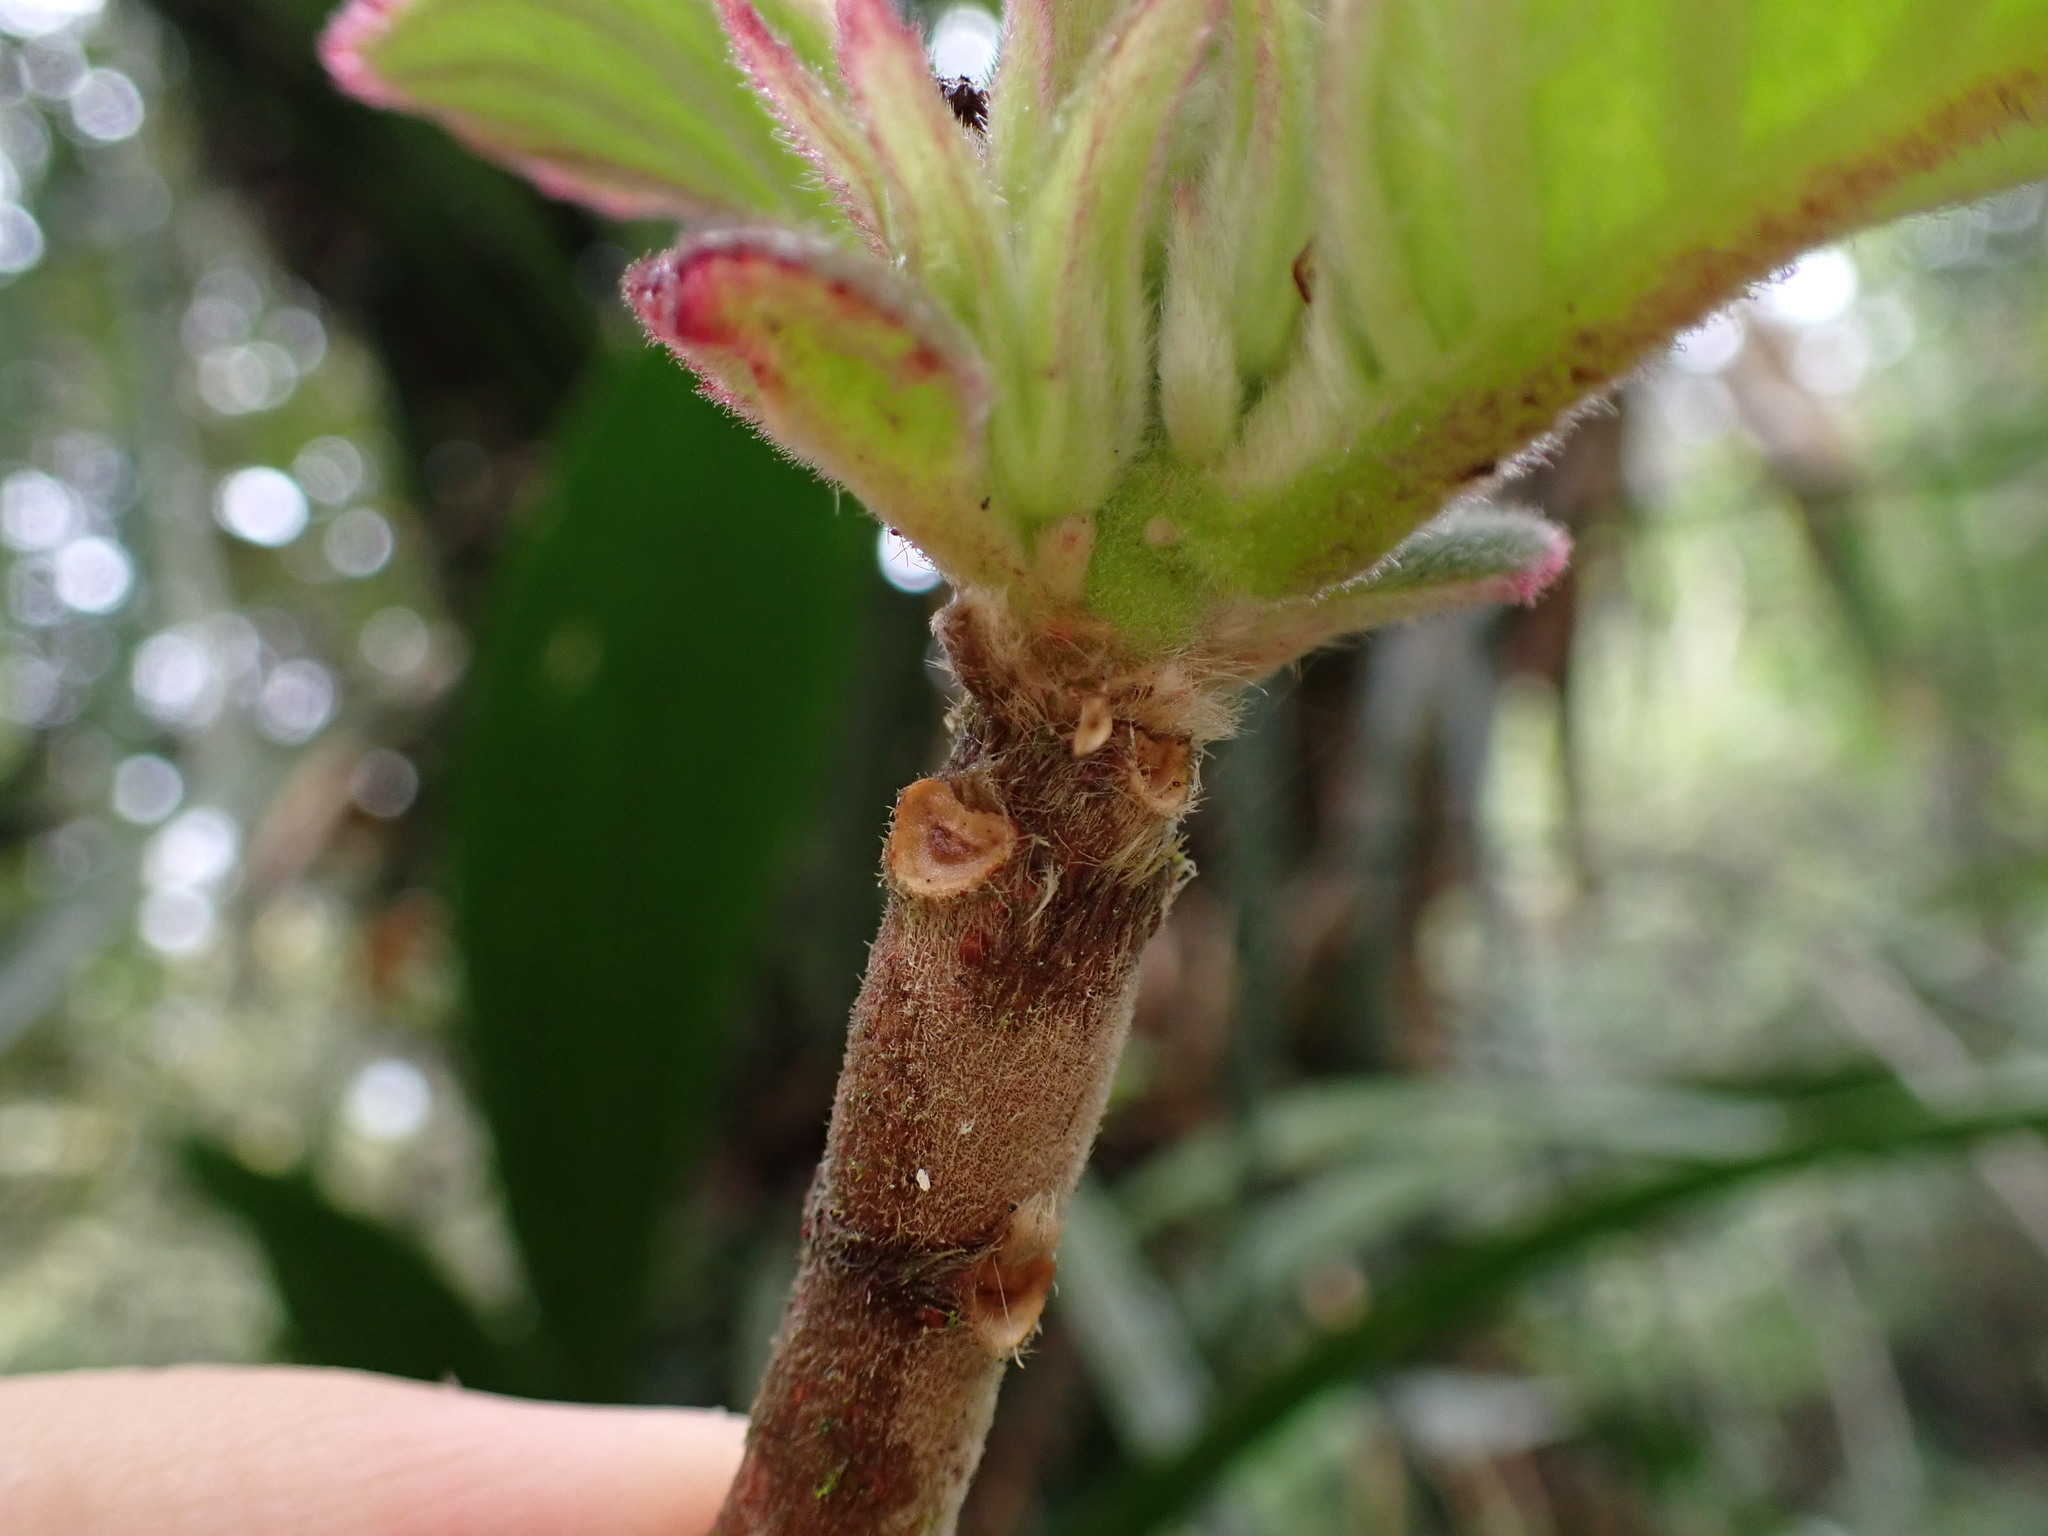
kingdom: Plantae
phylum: Tracheophyta
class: Magnoliopsida
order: Lamiales
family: Gesneriaceae
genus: Columnea
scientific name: Columnea lophophora
